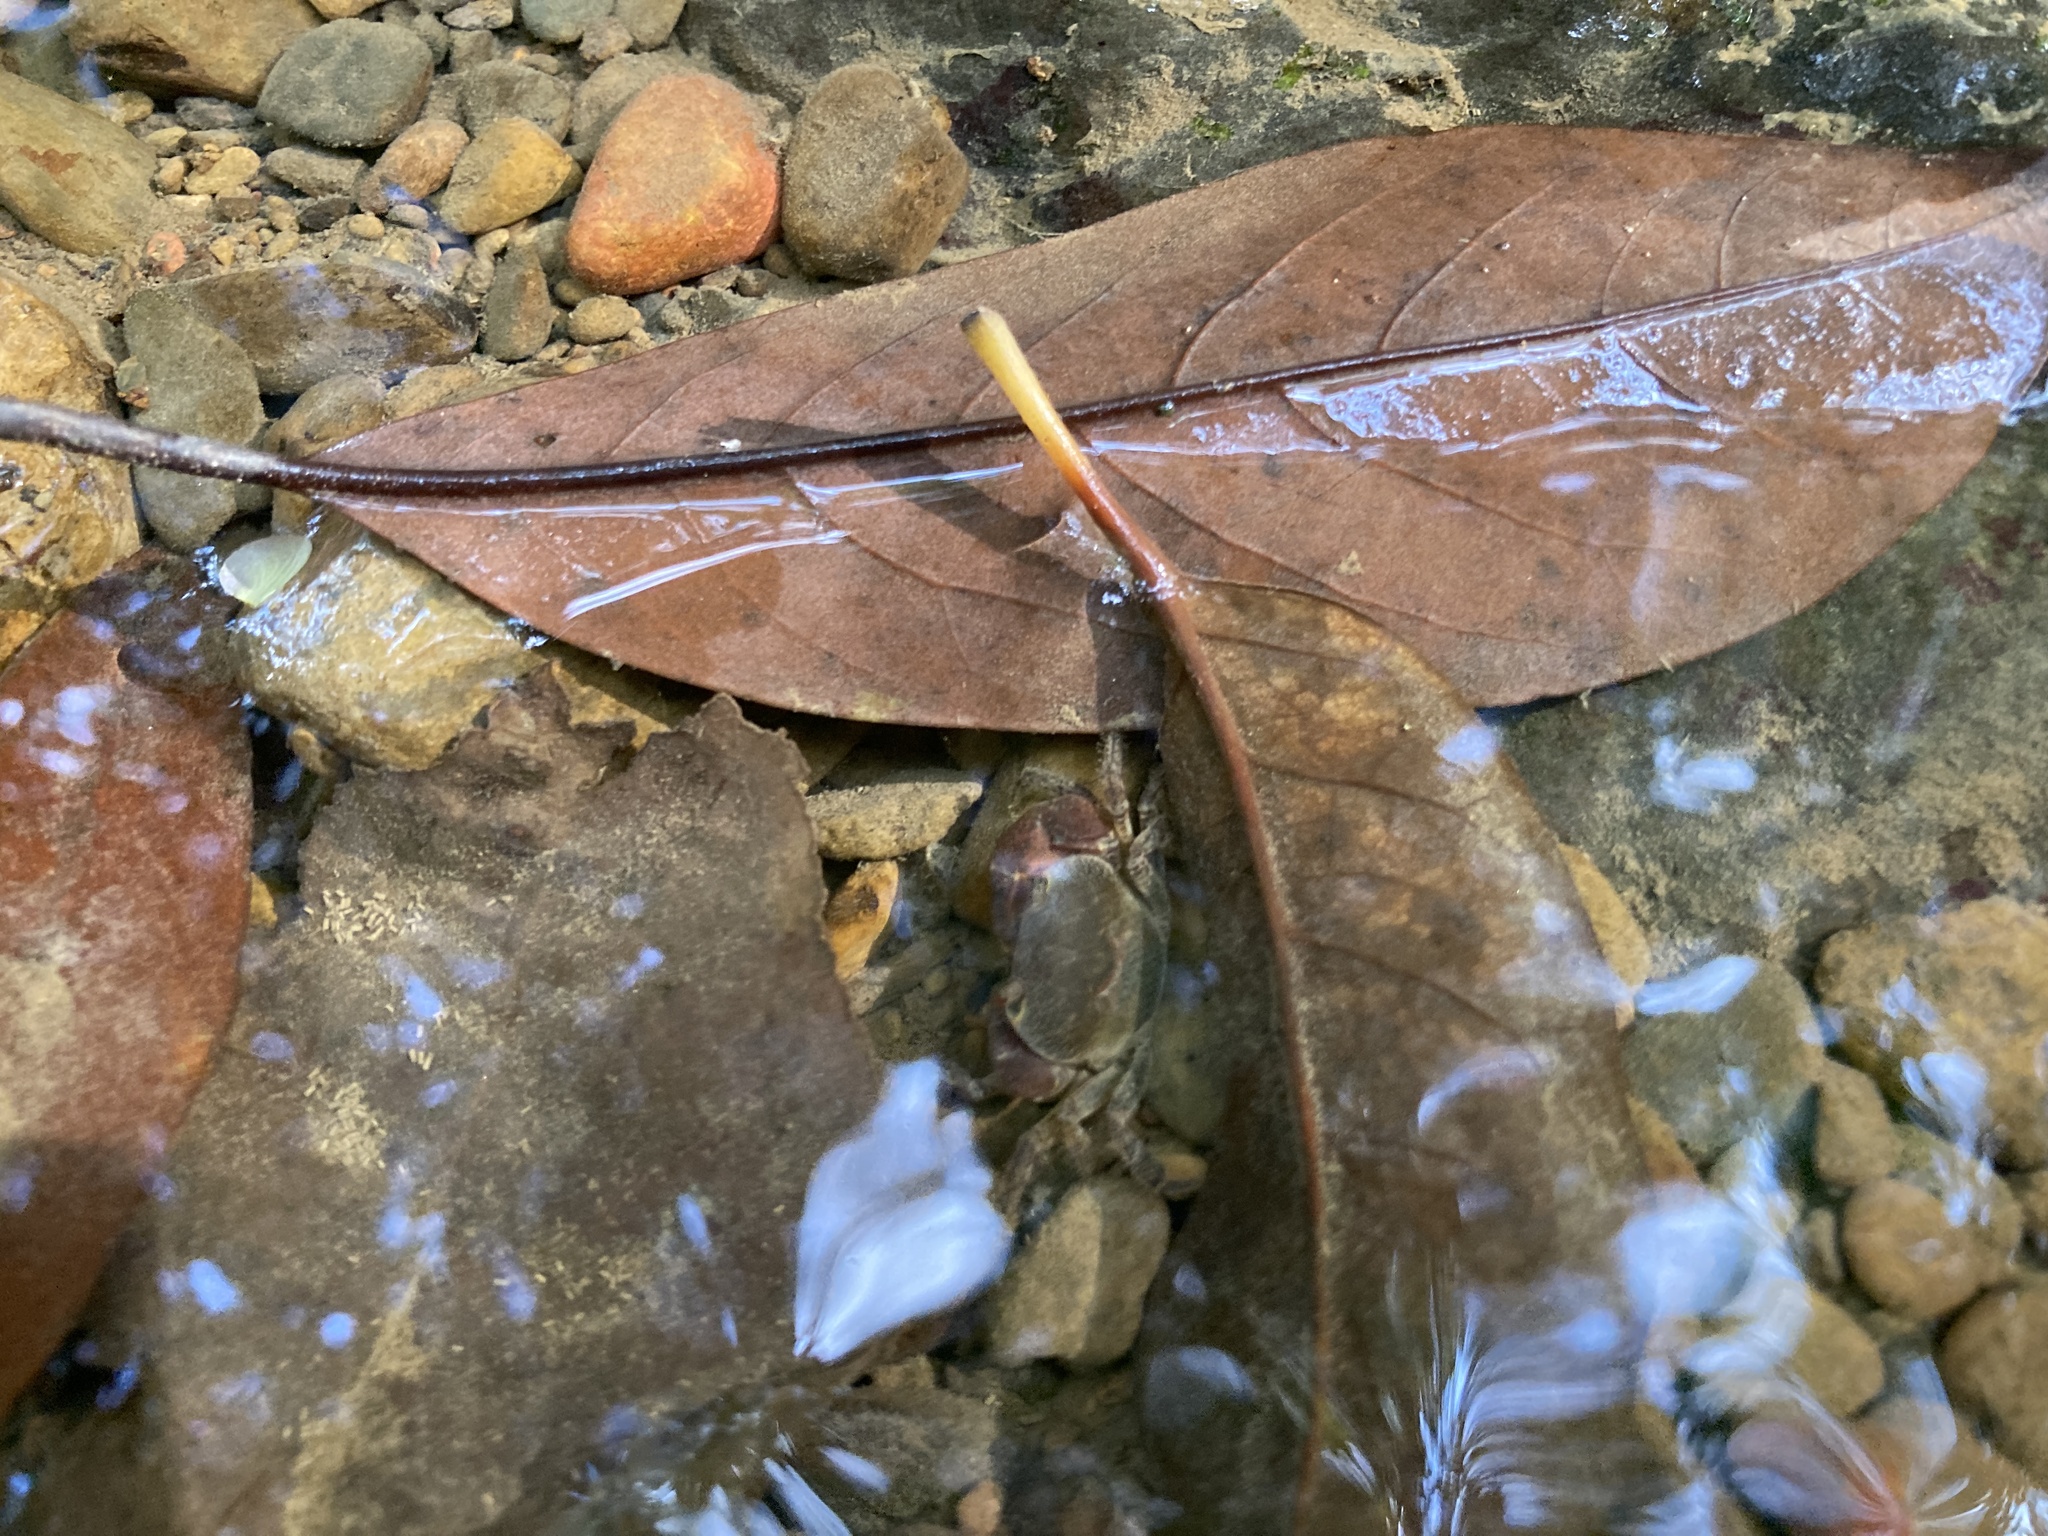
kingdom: Animalia
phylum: Arthropoda
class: Malacostraca
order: Decapoda
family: Potamidae
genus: Geothelphusa
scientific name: Geothelphusa
